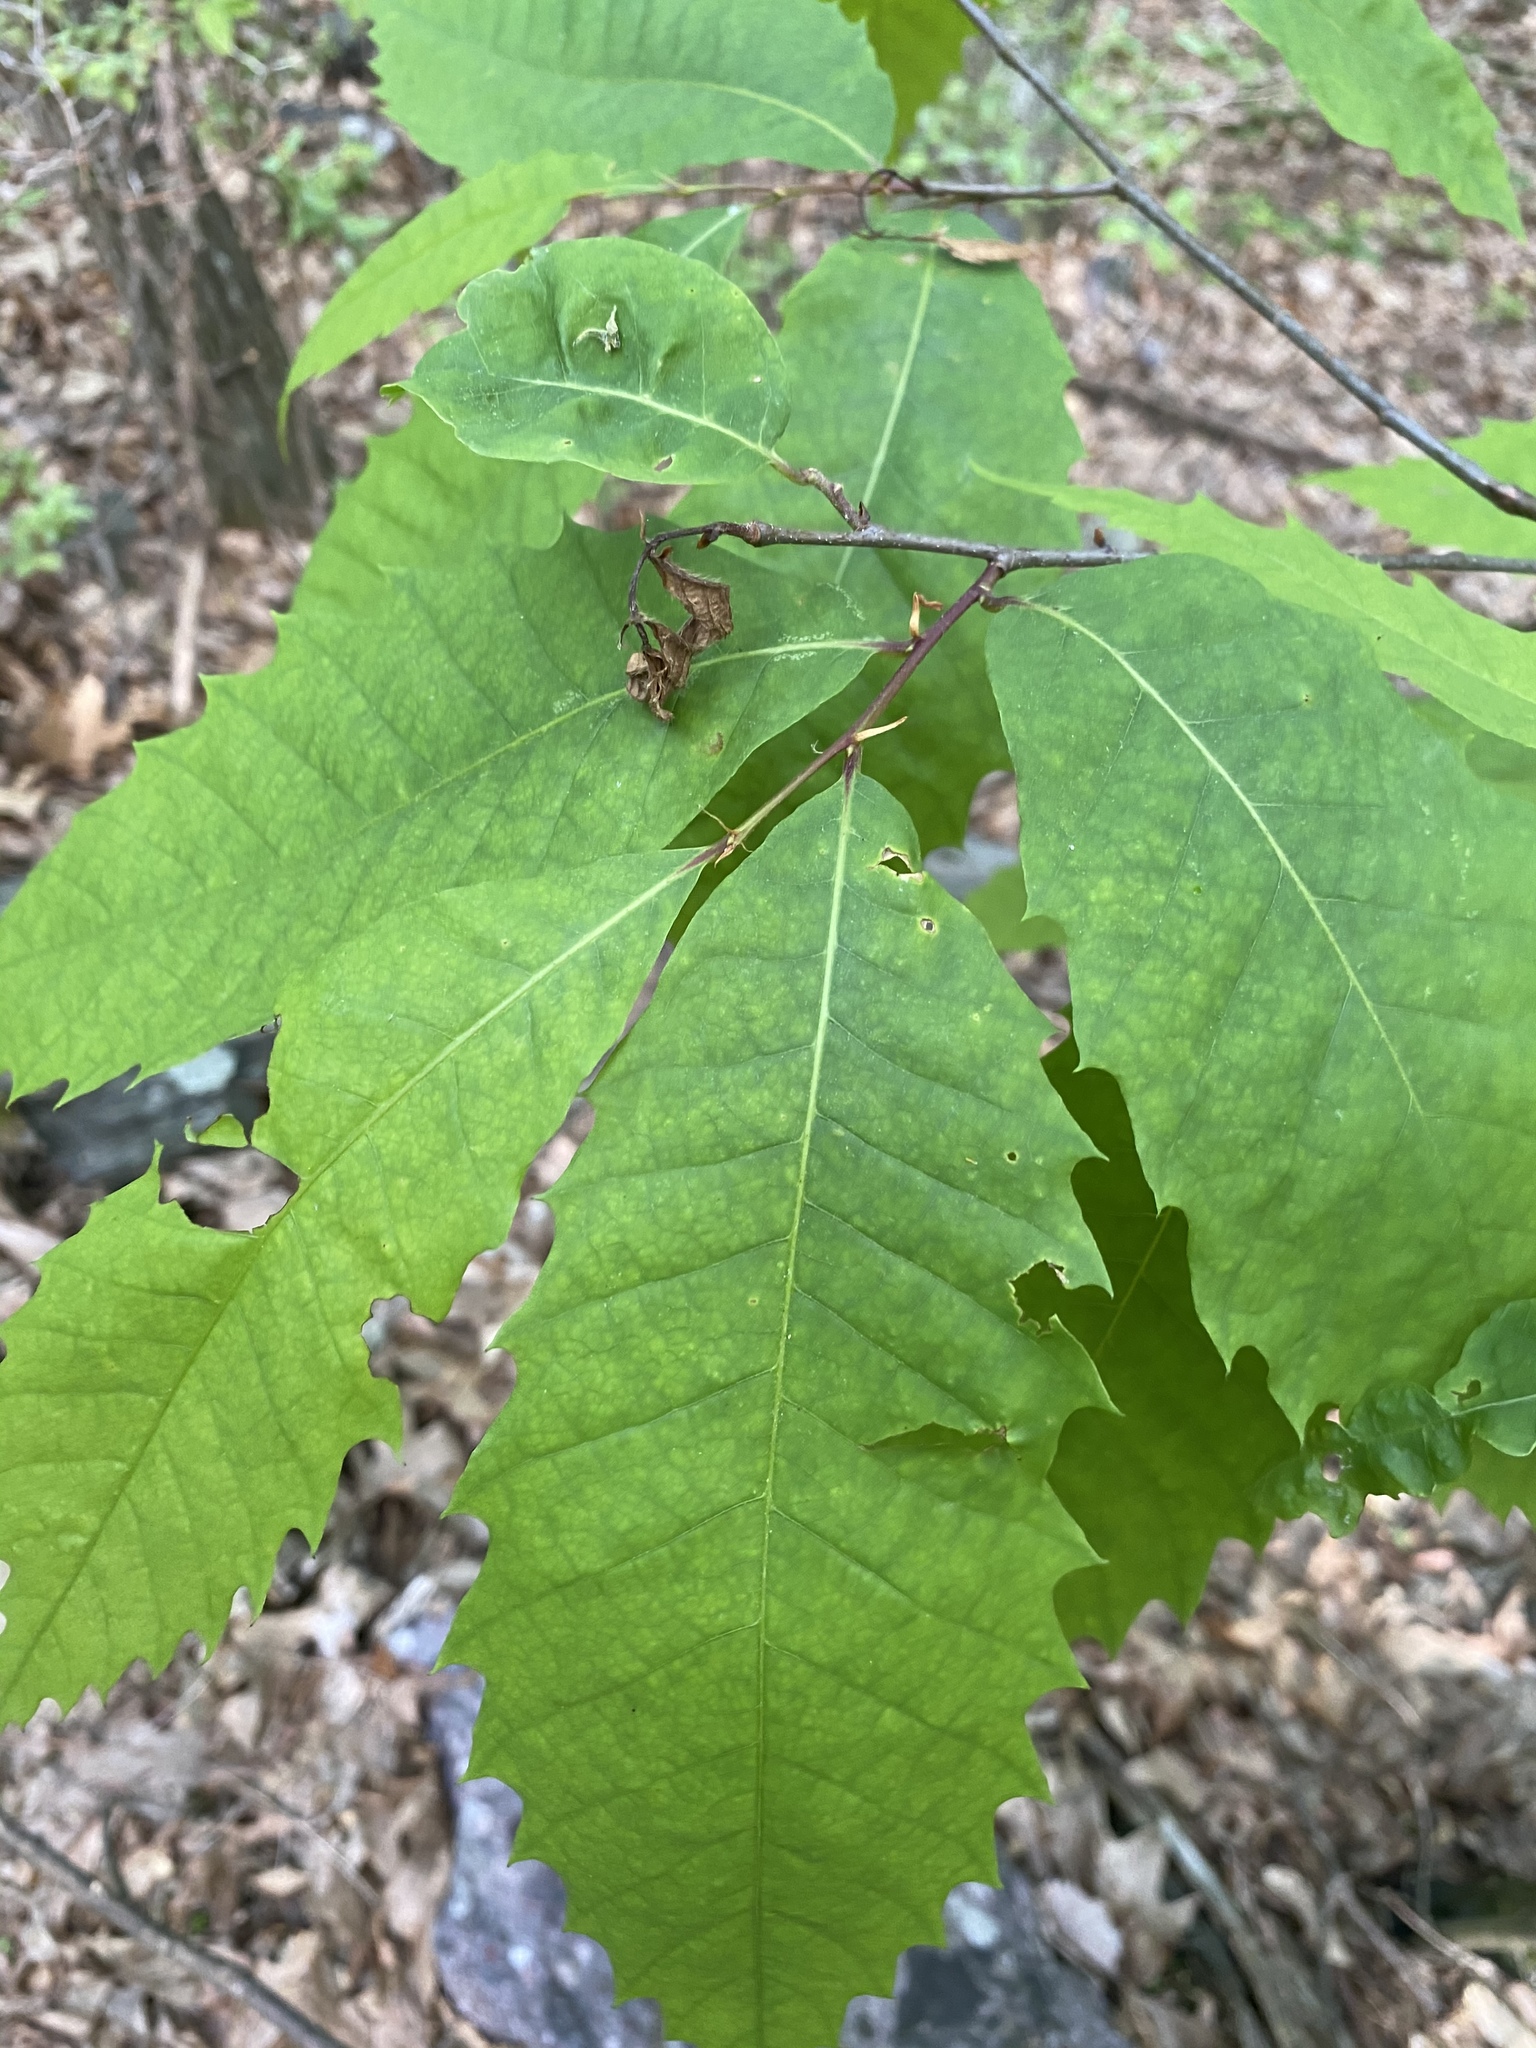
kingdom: Plantae
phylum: Tracheophyta
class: Magnoliopsida
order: Fagales
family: Fagaceae
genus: Castanea
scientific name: Castanea dentata
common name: American chestnut
